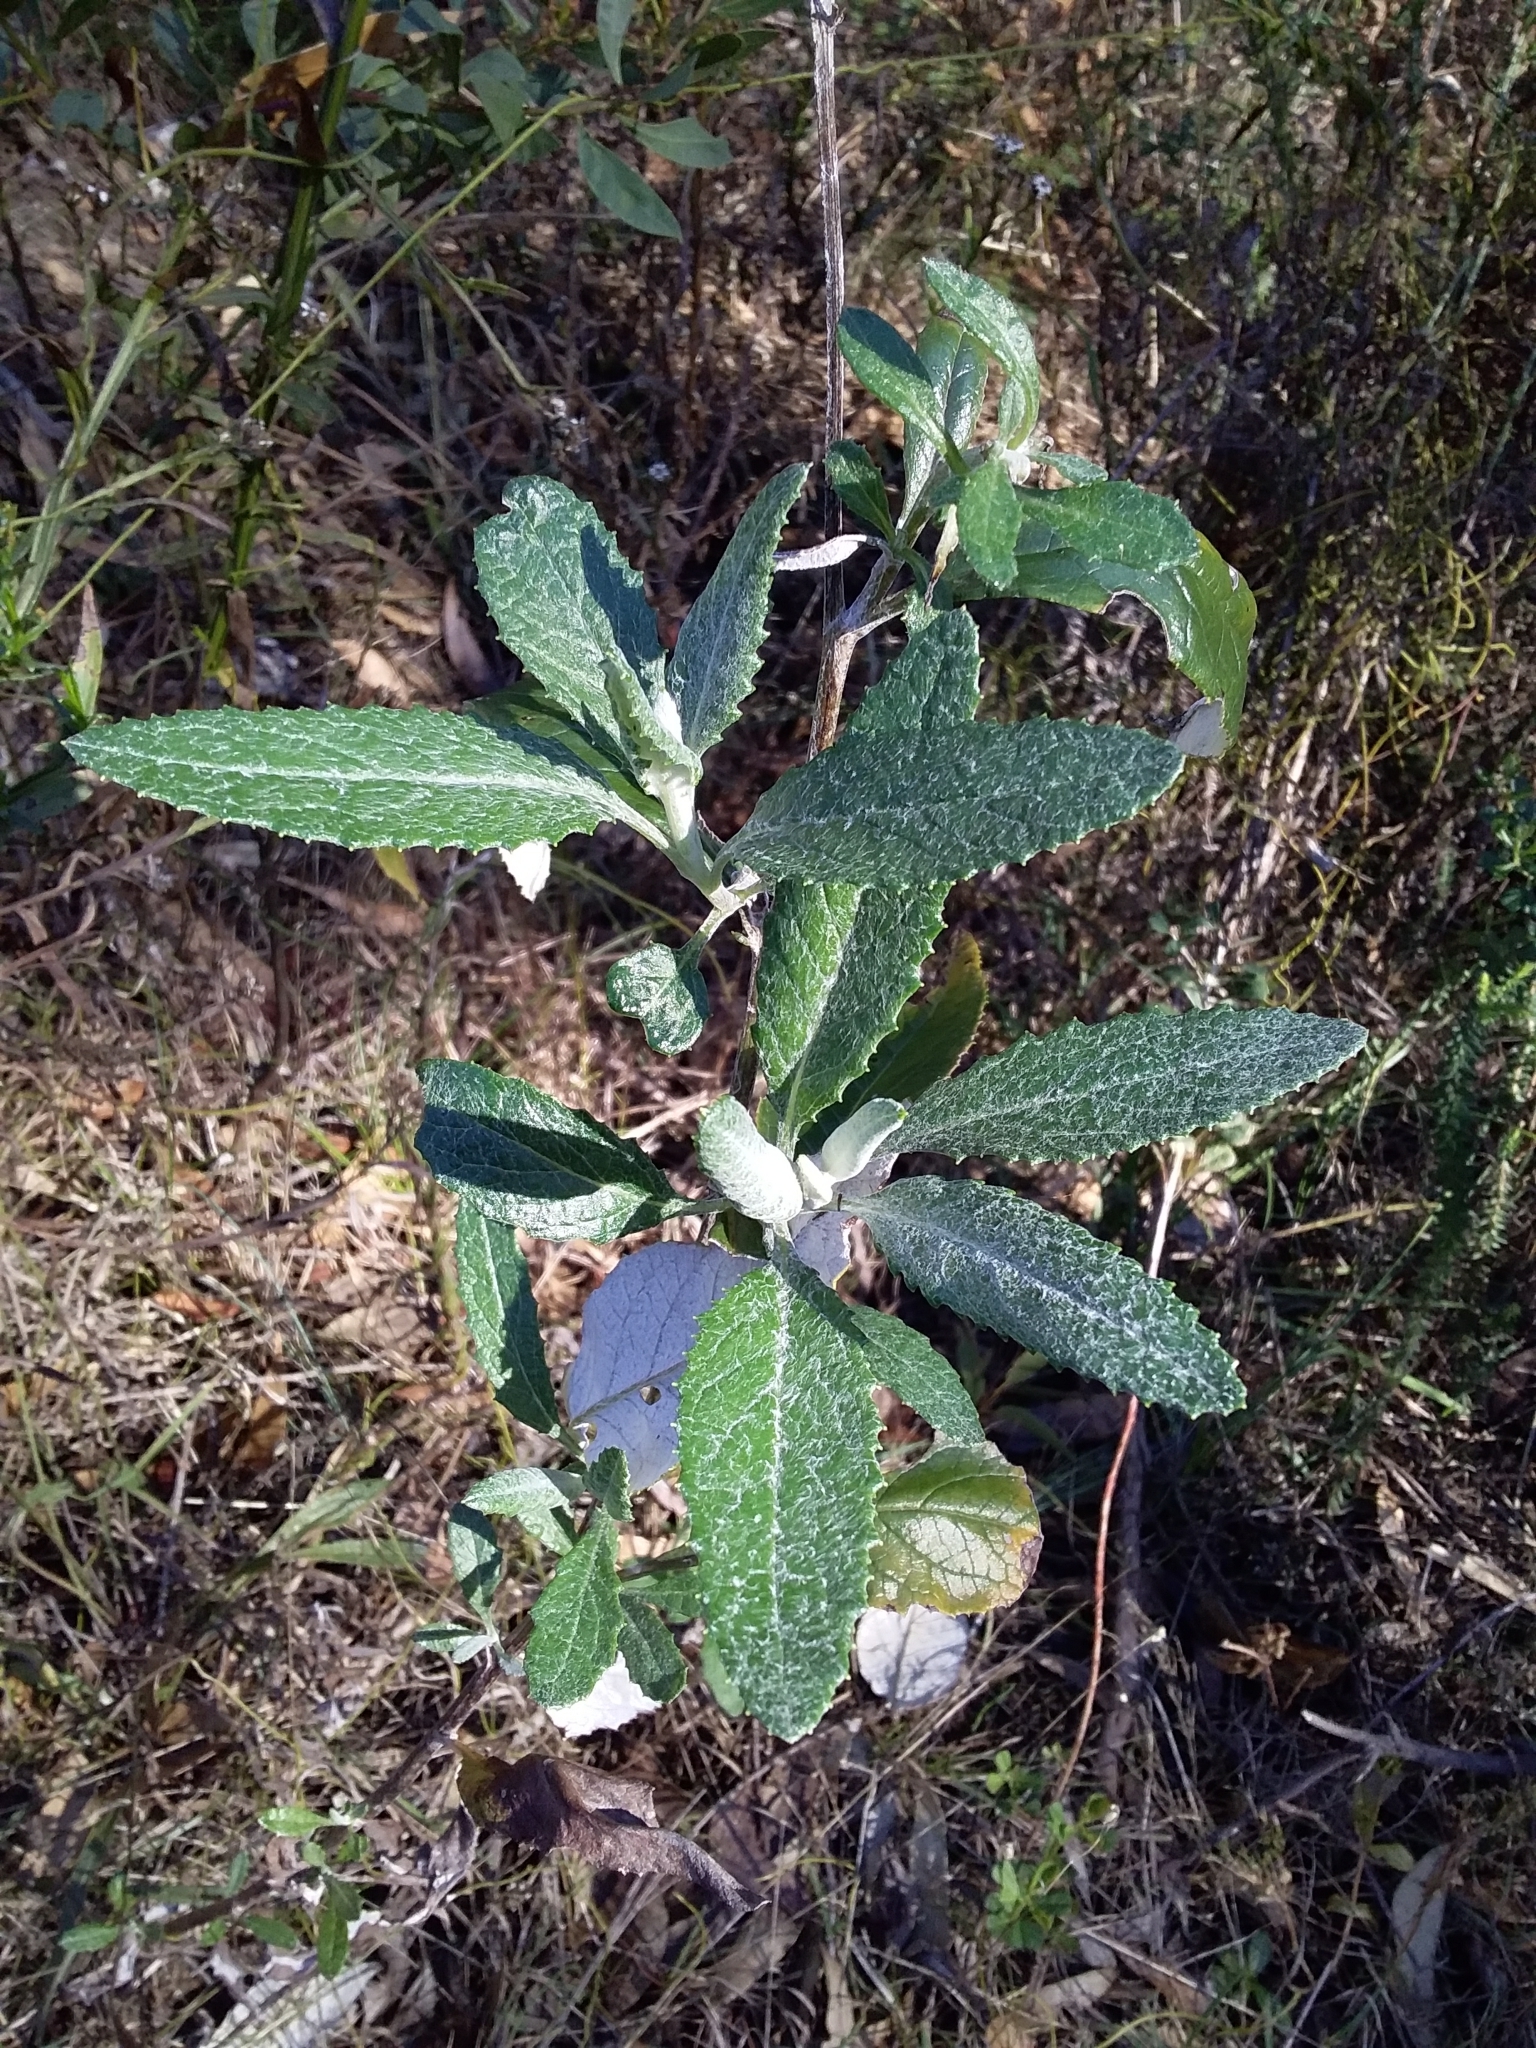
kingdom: Plantae
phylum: Tracheophyta
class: Magnoliopsida
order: Asterales
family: Asteraceae
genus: Senecio
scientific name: Senecio hypoleucus
